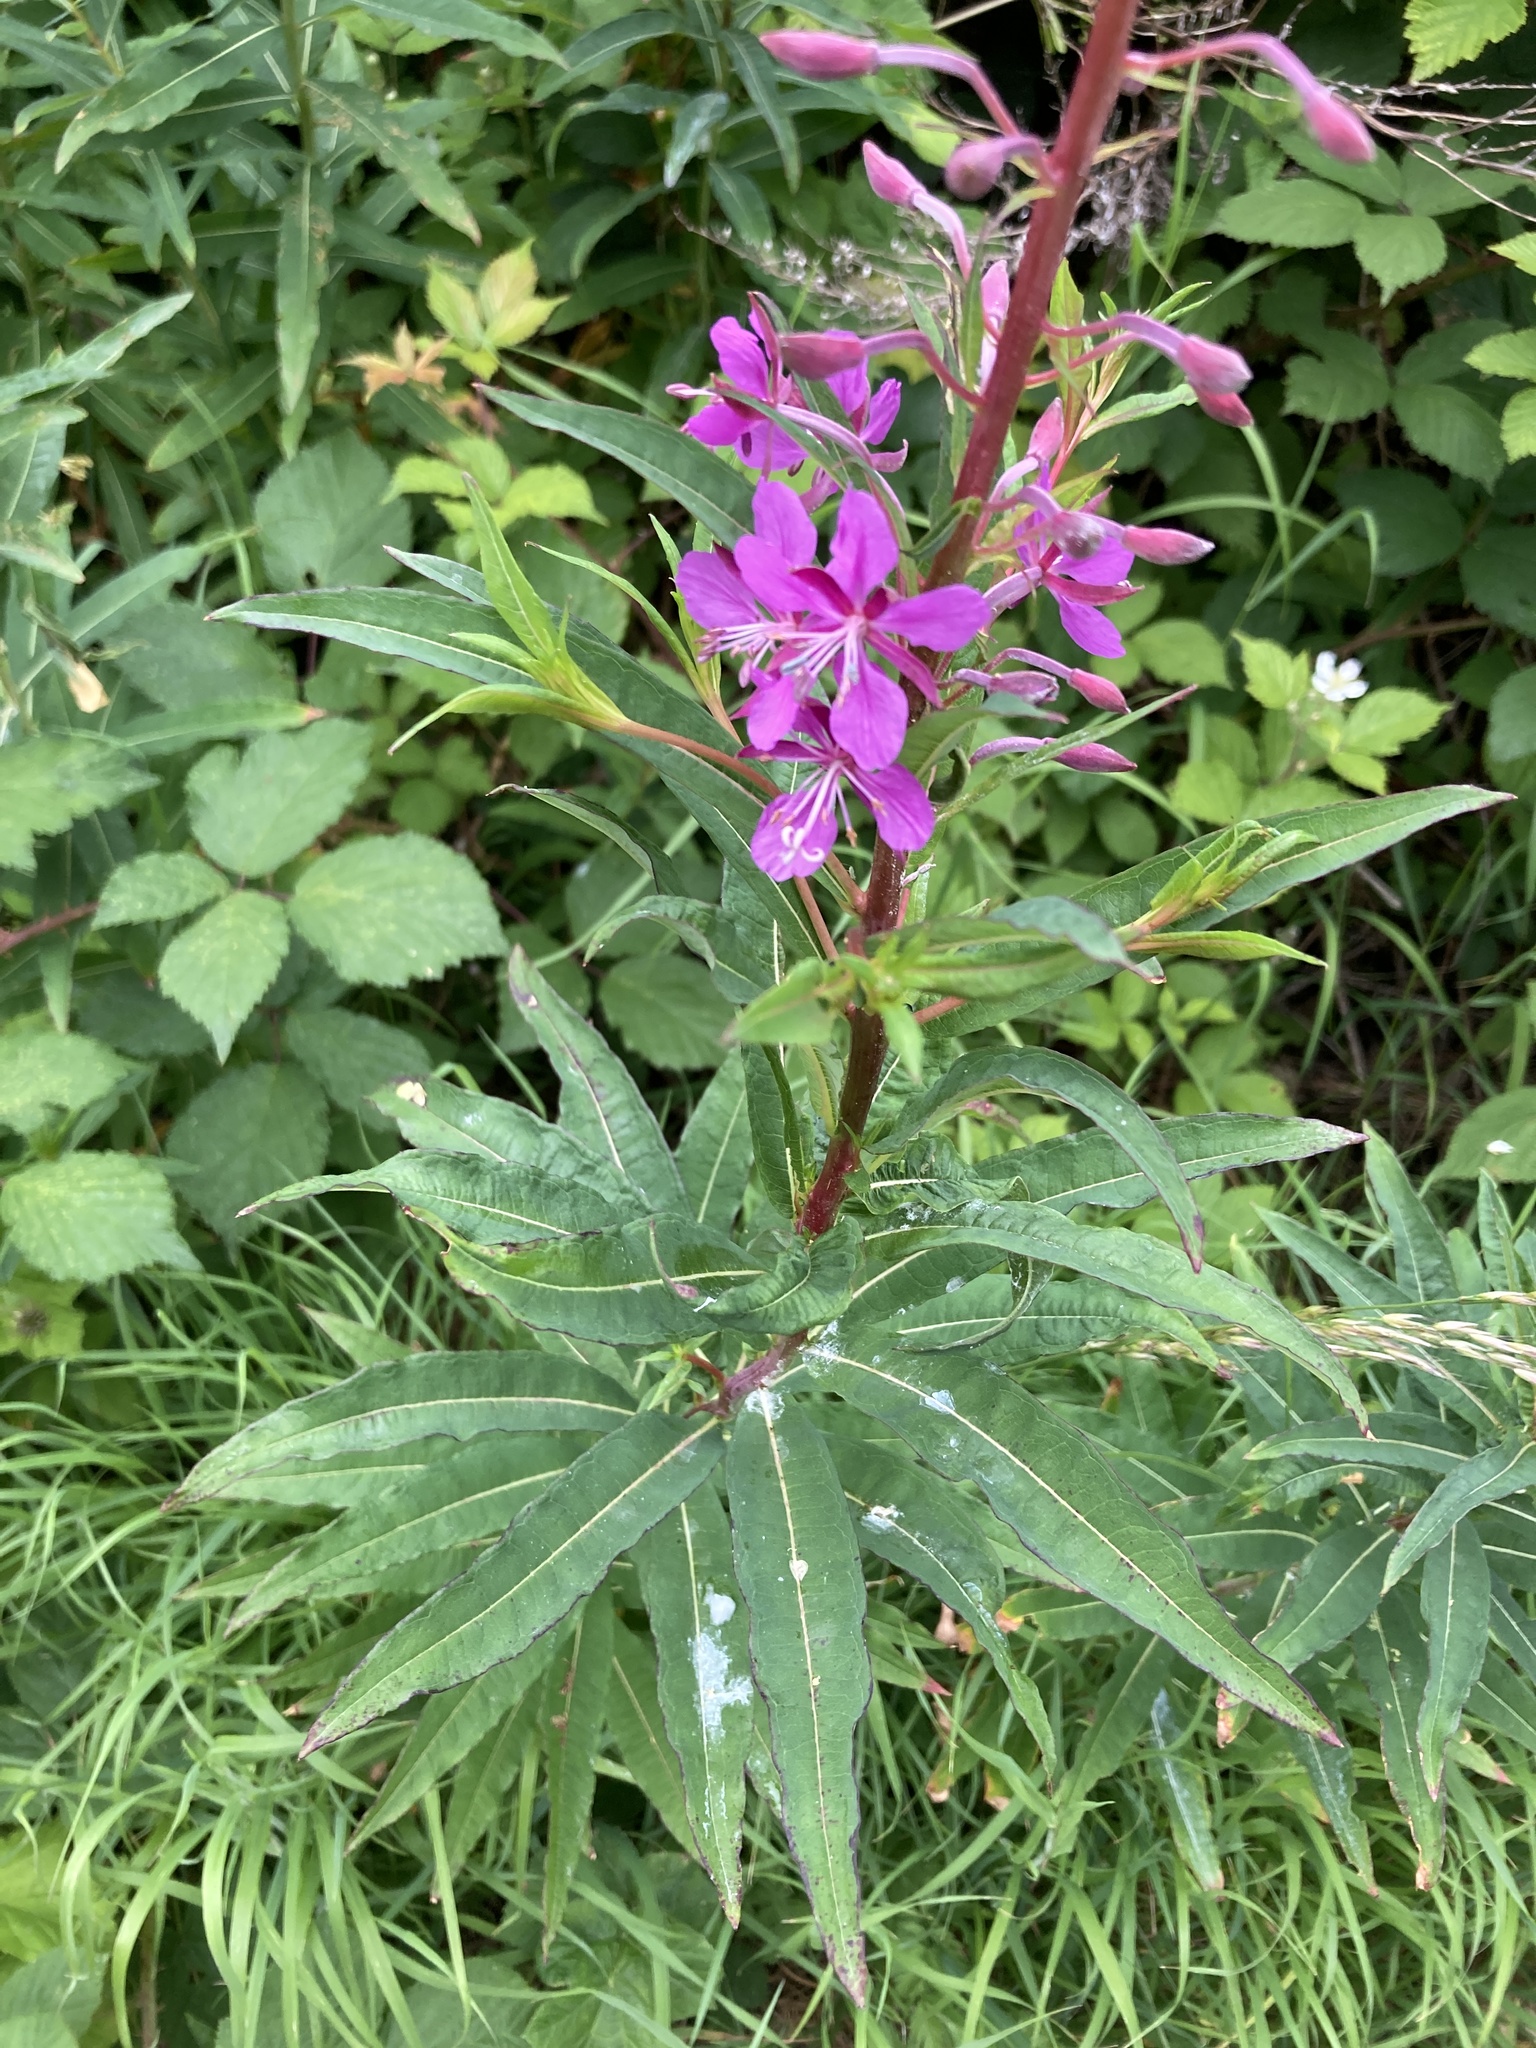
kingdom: Plantae
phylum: Tracheophyta
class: Magnoliopsida
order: Myrtales
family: Onagraceae
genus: Chamaenerion
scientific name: Chamaenerion angustifolium
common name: Fireweed
